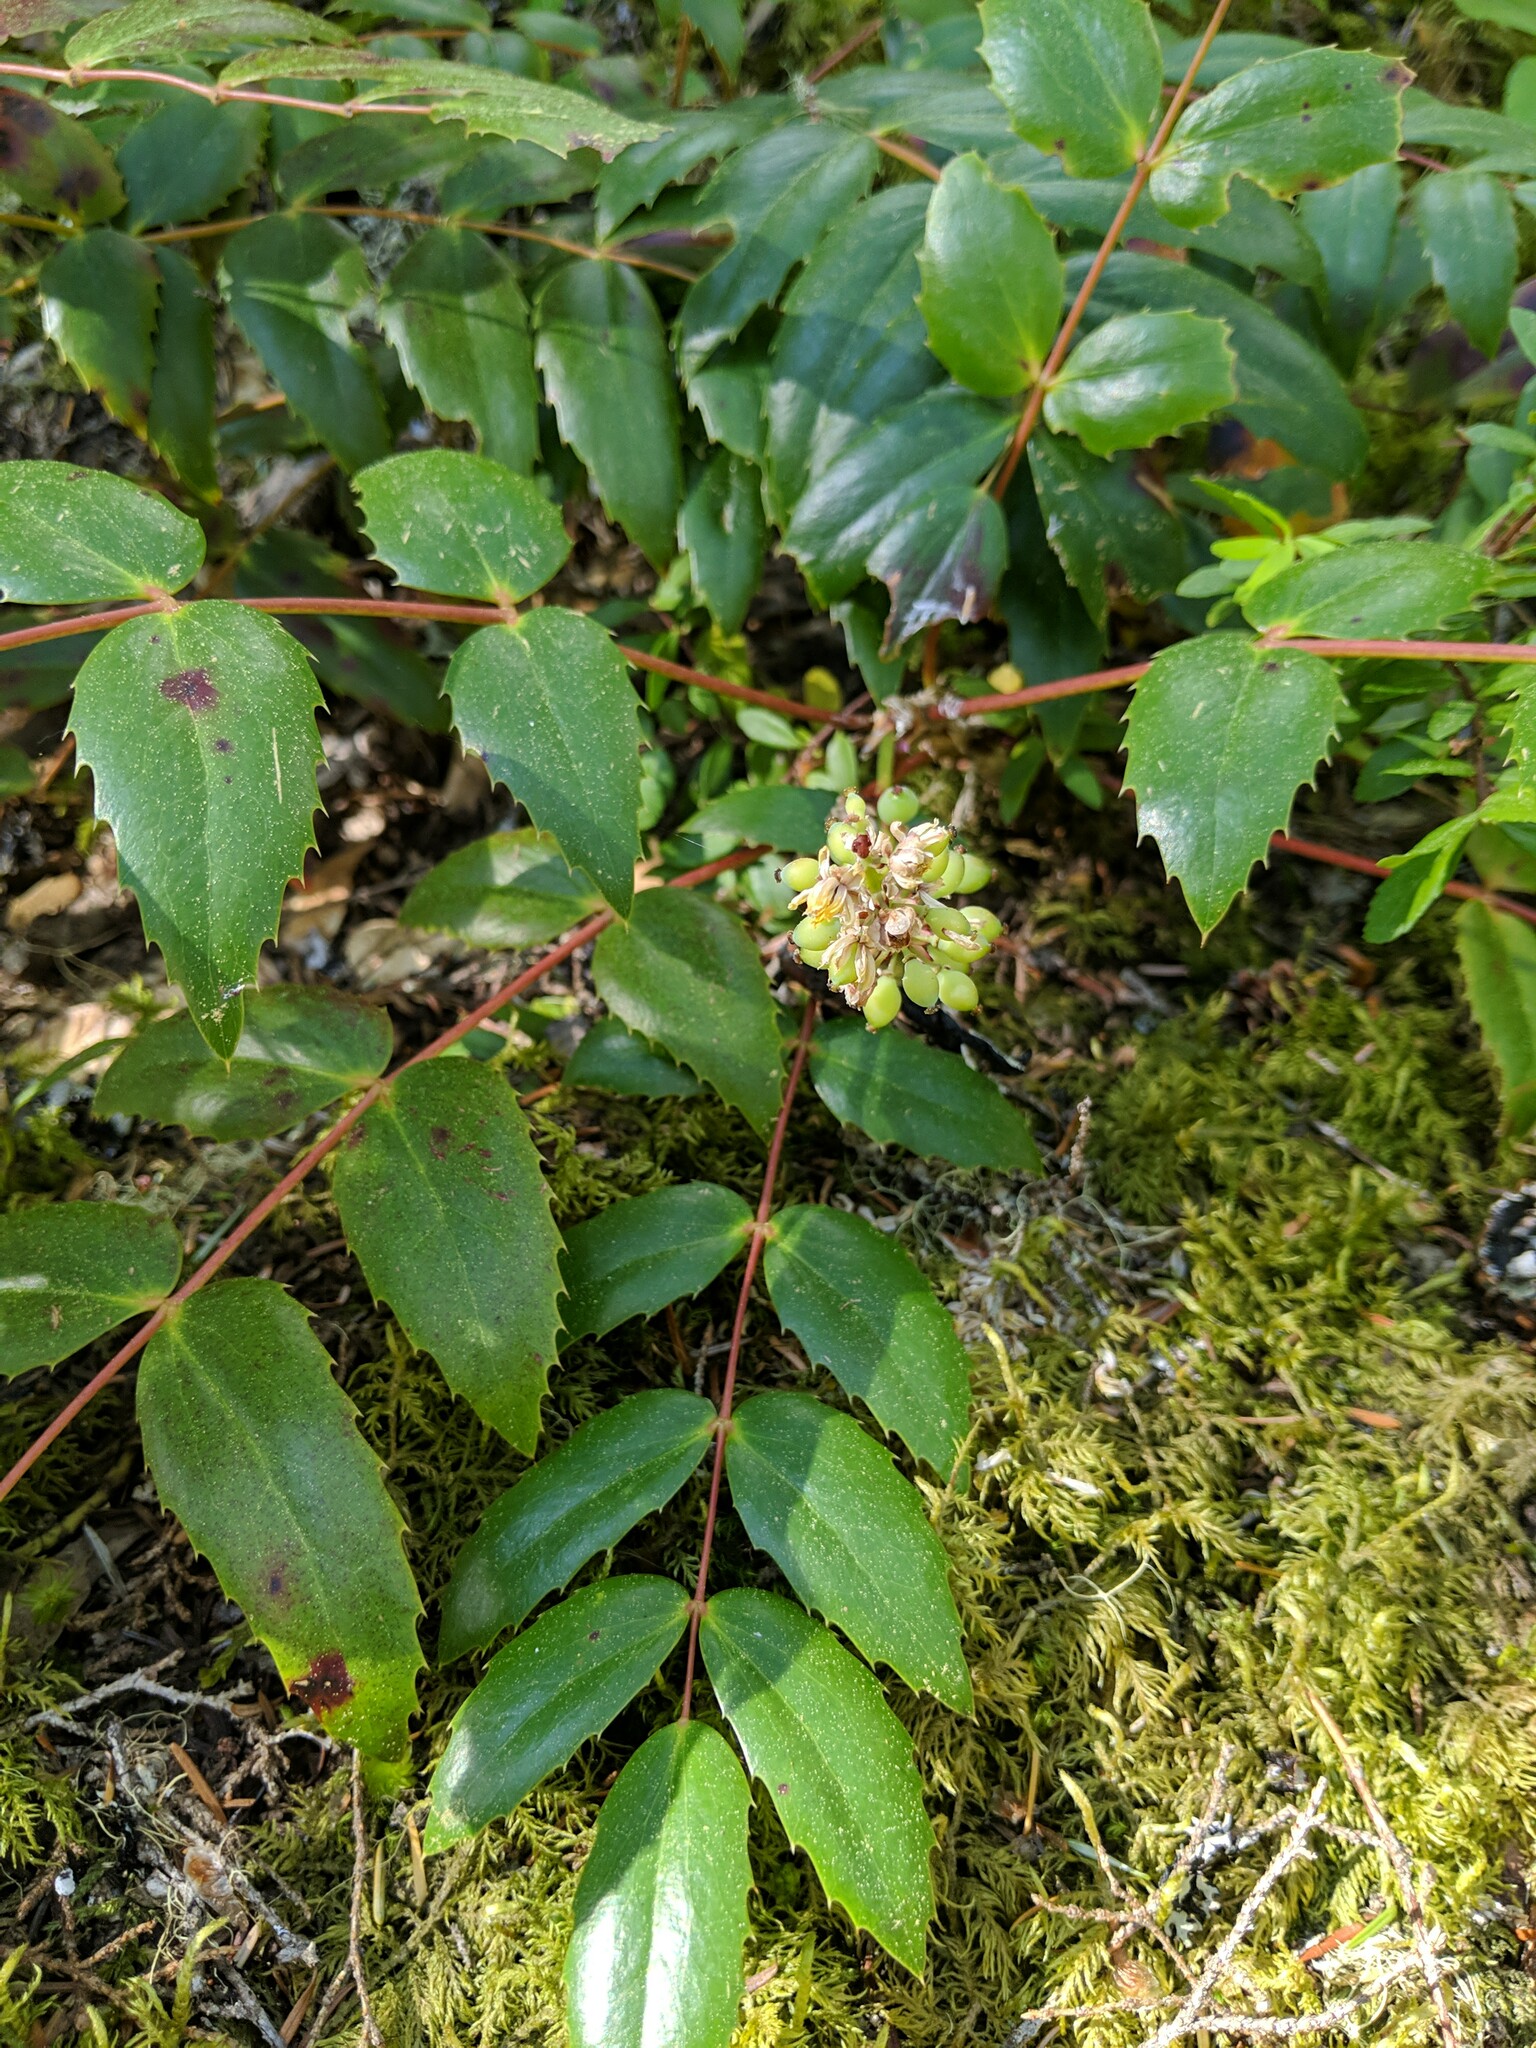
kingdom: Plantae
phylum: Tracheophyta
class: Magnoliopsida
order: Ranunculales
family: Berberidaceae
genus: Mahonia
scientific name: Mahonia nervosa
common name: Cascade oregon-grape
